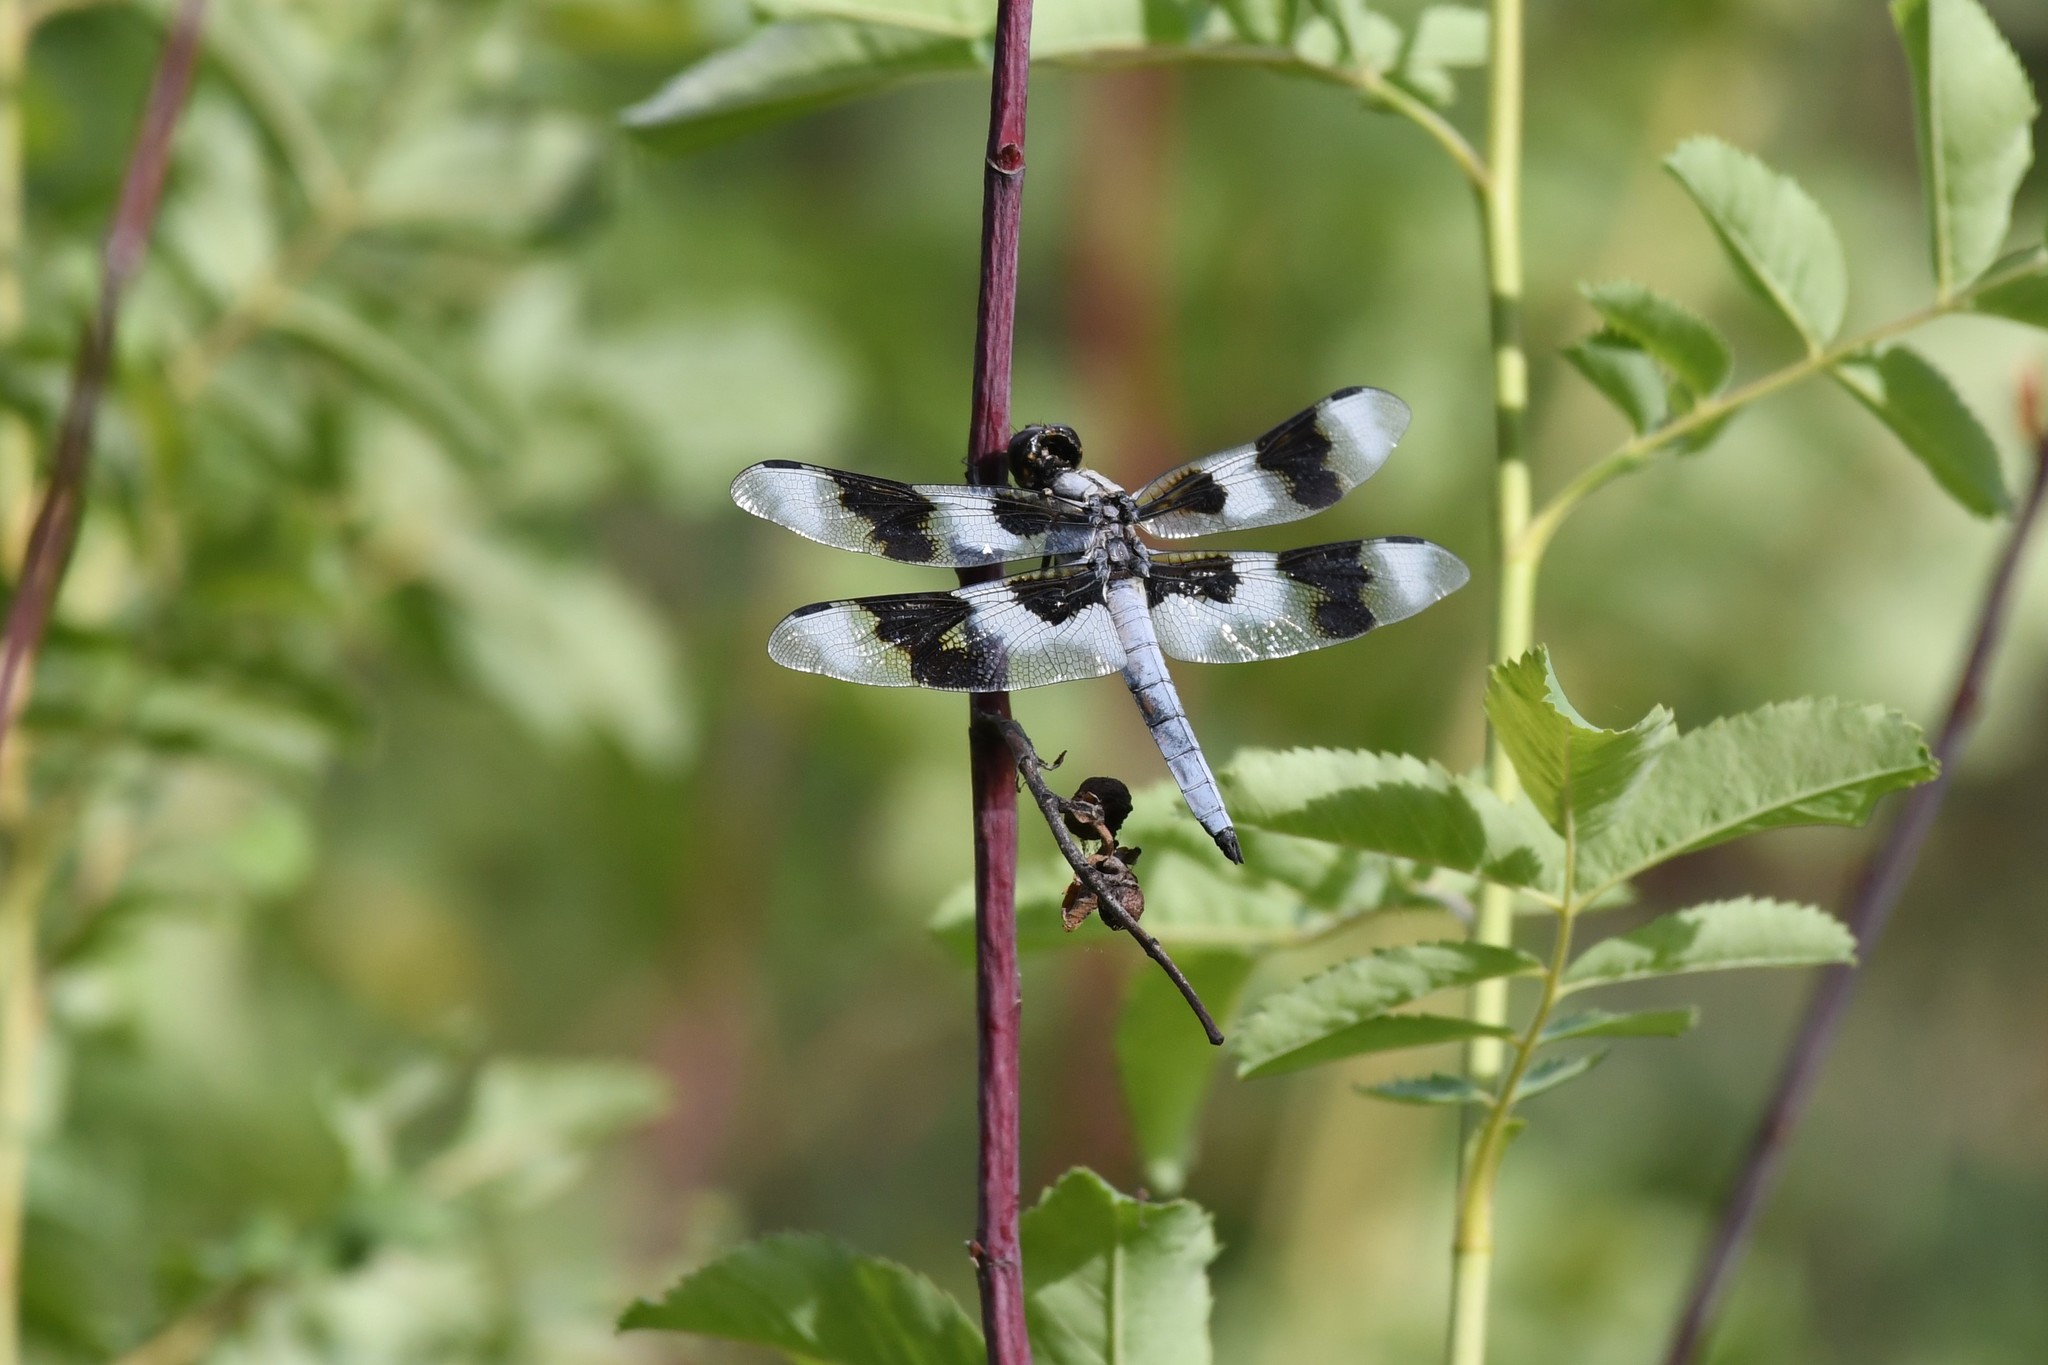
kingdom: Animalia
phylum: Arthropoda
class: Insecta
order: Odonata
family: Libellulidae
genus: Libellula
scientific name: Libellula forensis
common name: Eight-spotted skimmer
